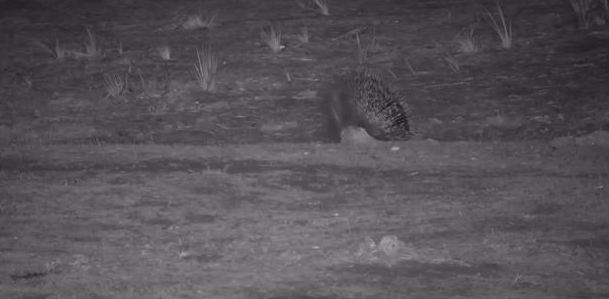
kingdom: Animalia
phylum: Chordata
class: Mammalia
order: Rodentia
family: Hystricidae
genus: Hystrix
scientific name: Hystrix africaeaustralis
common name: Cape porcupine
